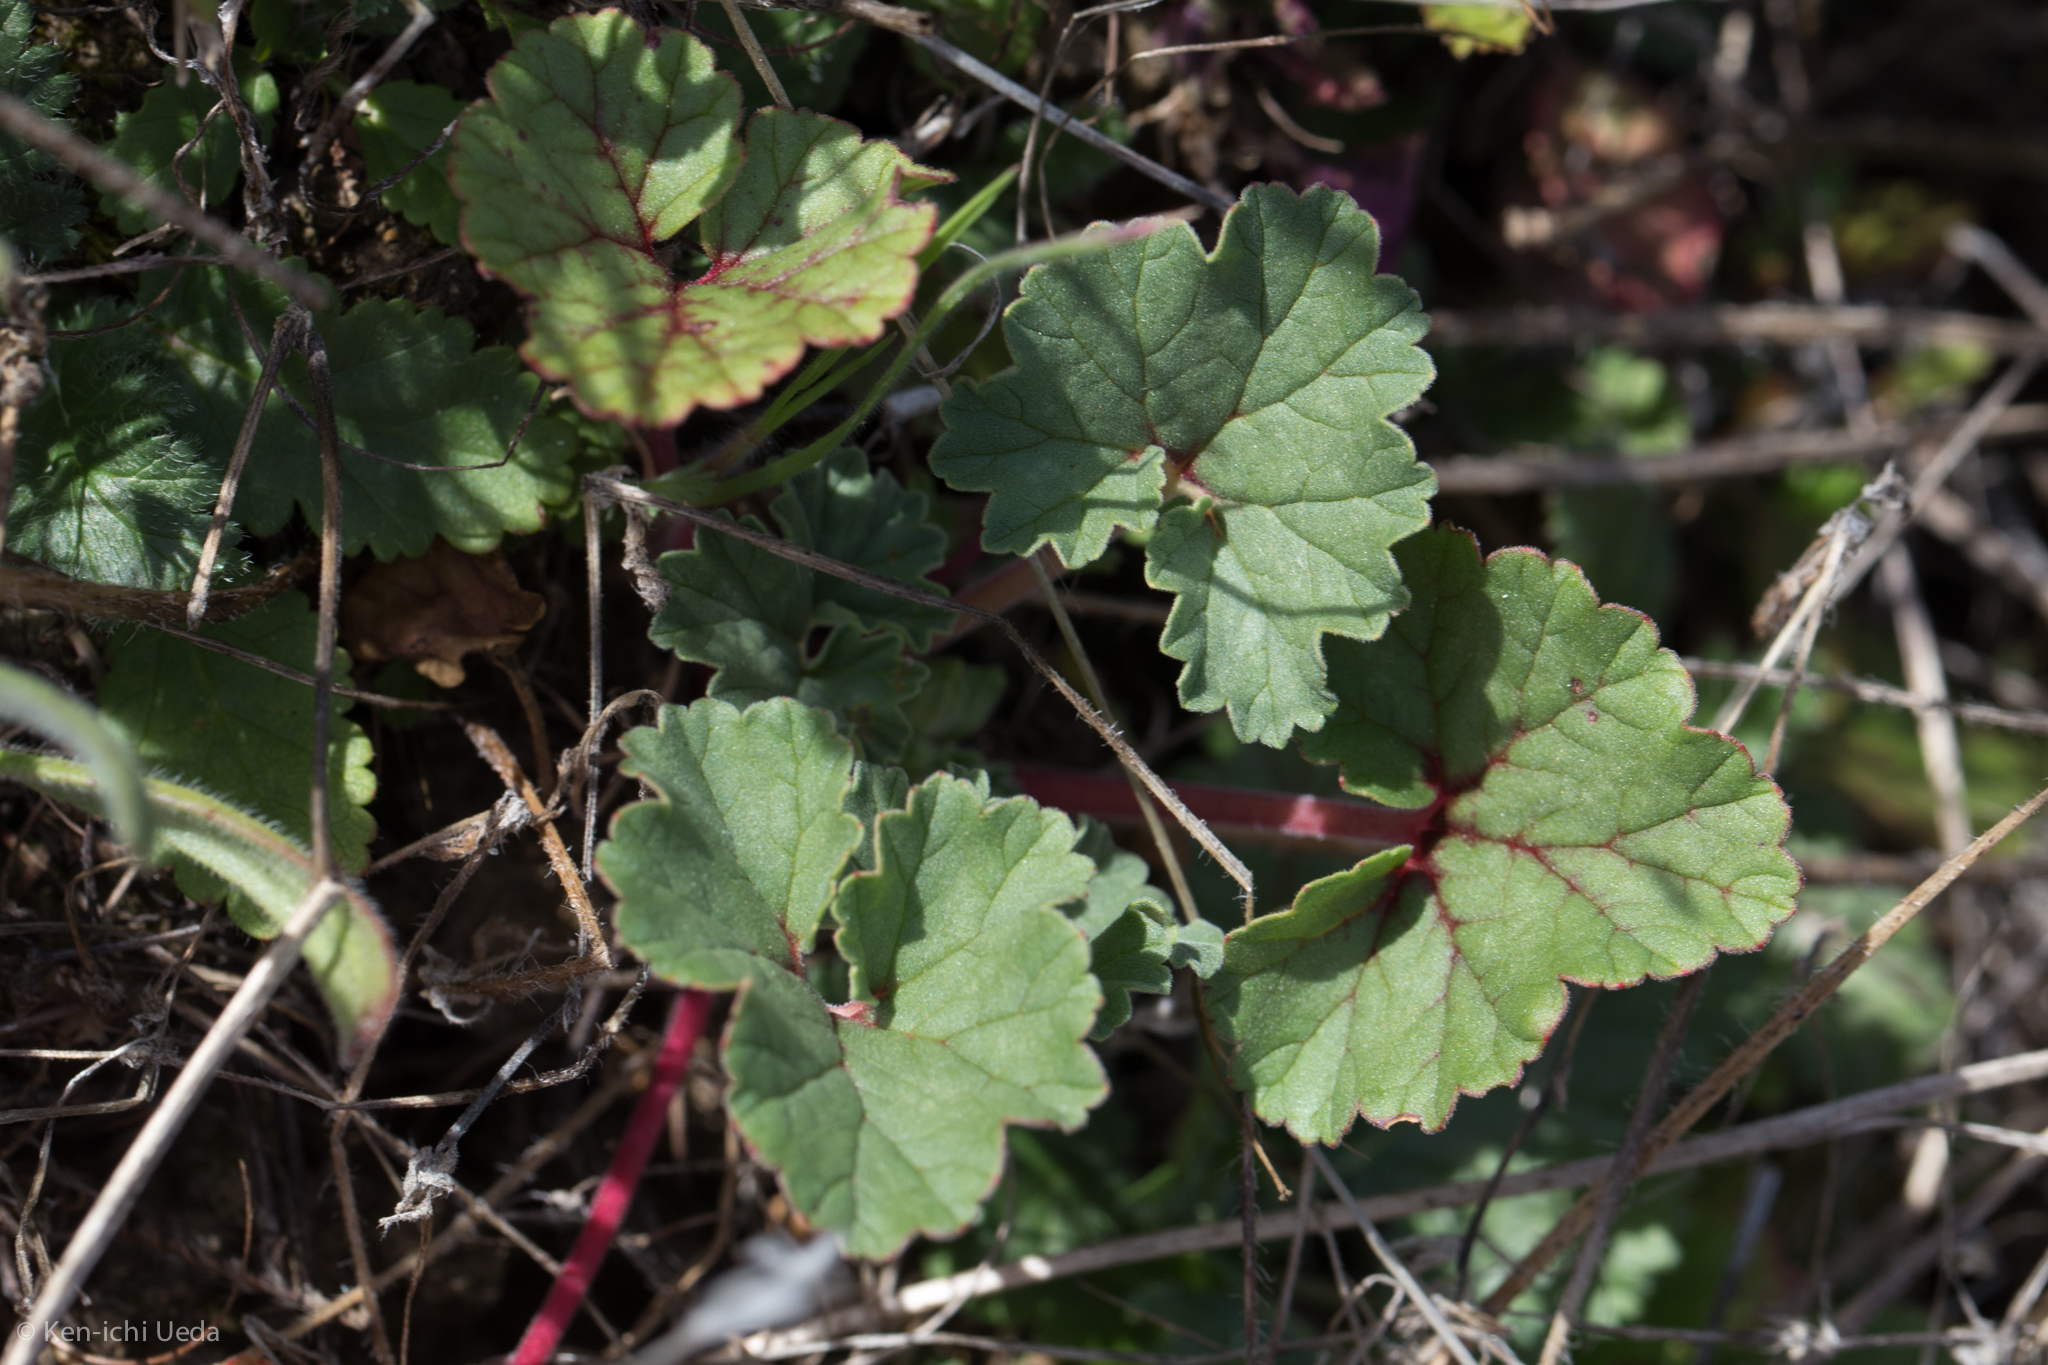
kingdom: Plantae
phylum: Tracheophyta
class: Magnoliopsida
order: Geraniales
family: Geraniaceae
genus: California
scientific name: California macrophylla
